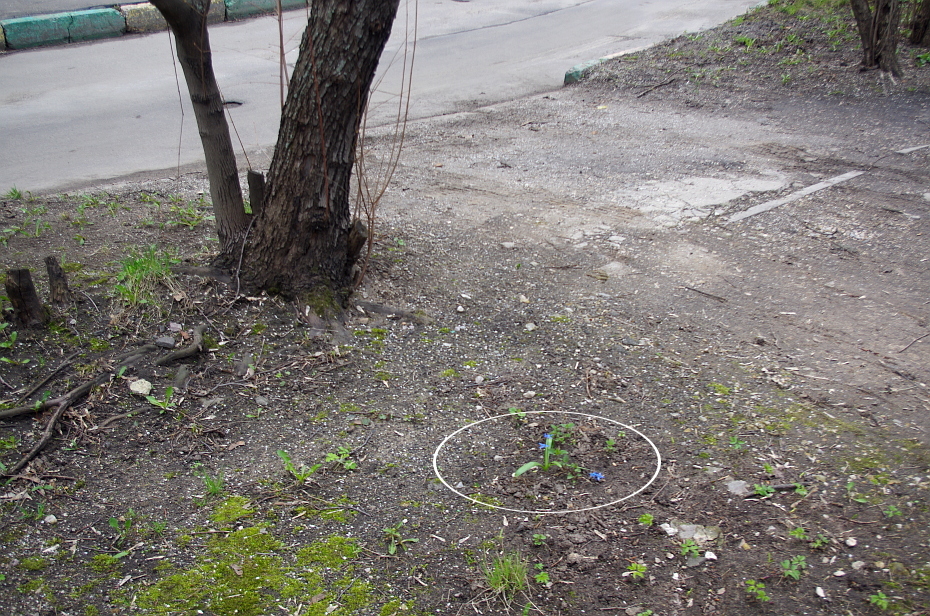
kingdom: Plantae
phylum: Tracheophyta
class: Liliopsida
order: Asparagales
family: Asparagaceae
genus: Scilla
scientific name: Scilla siberica
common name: Siberian squill
